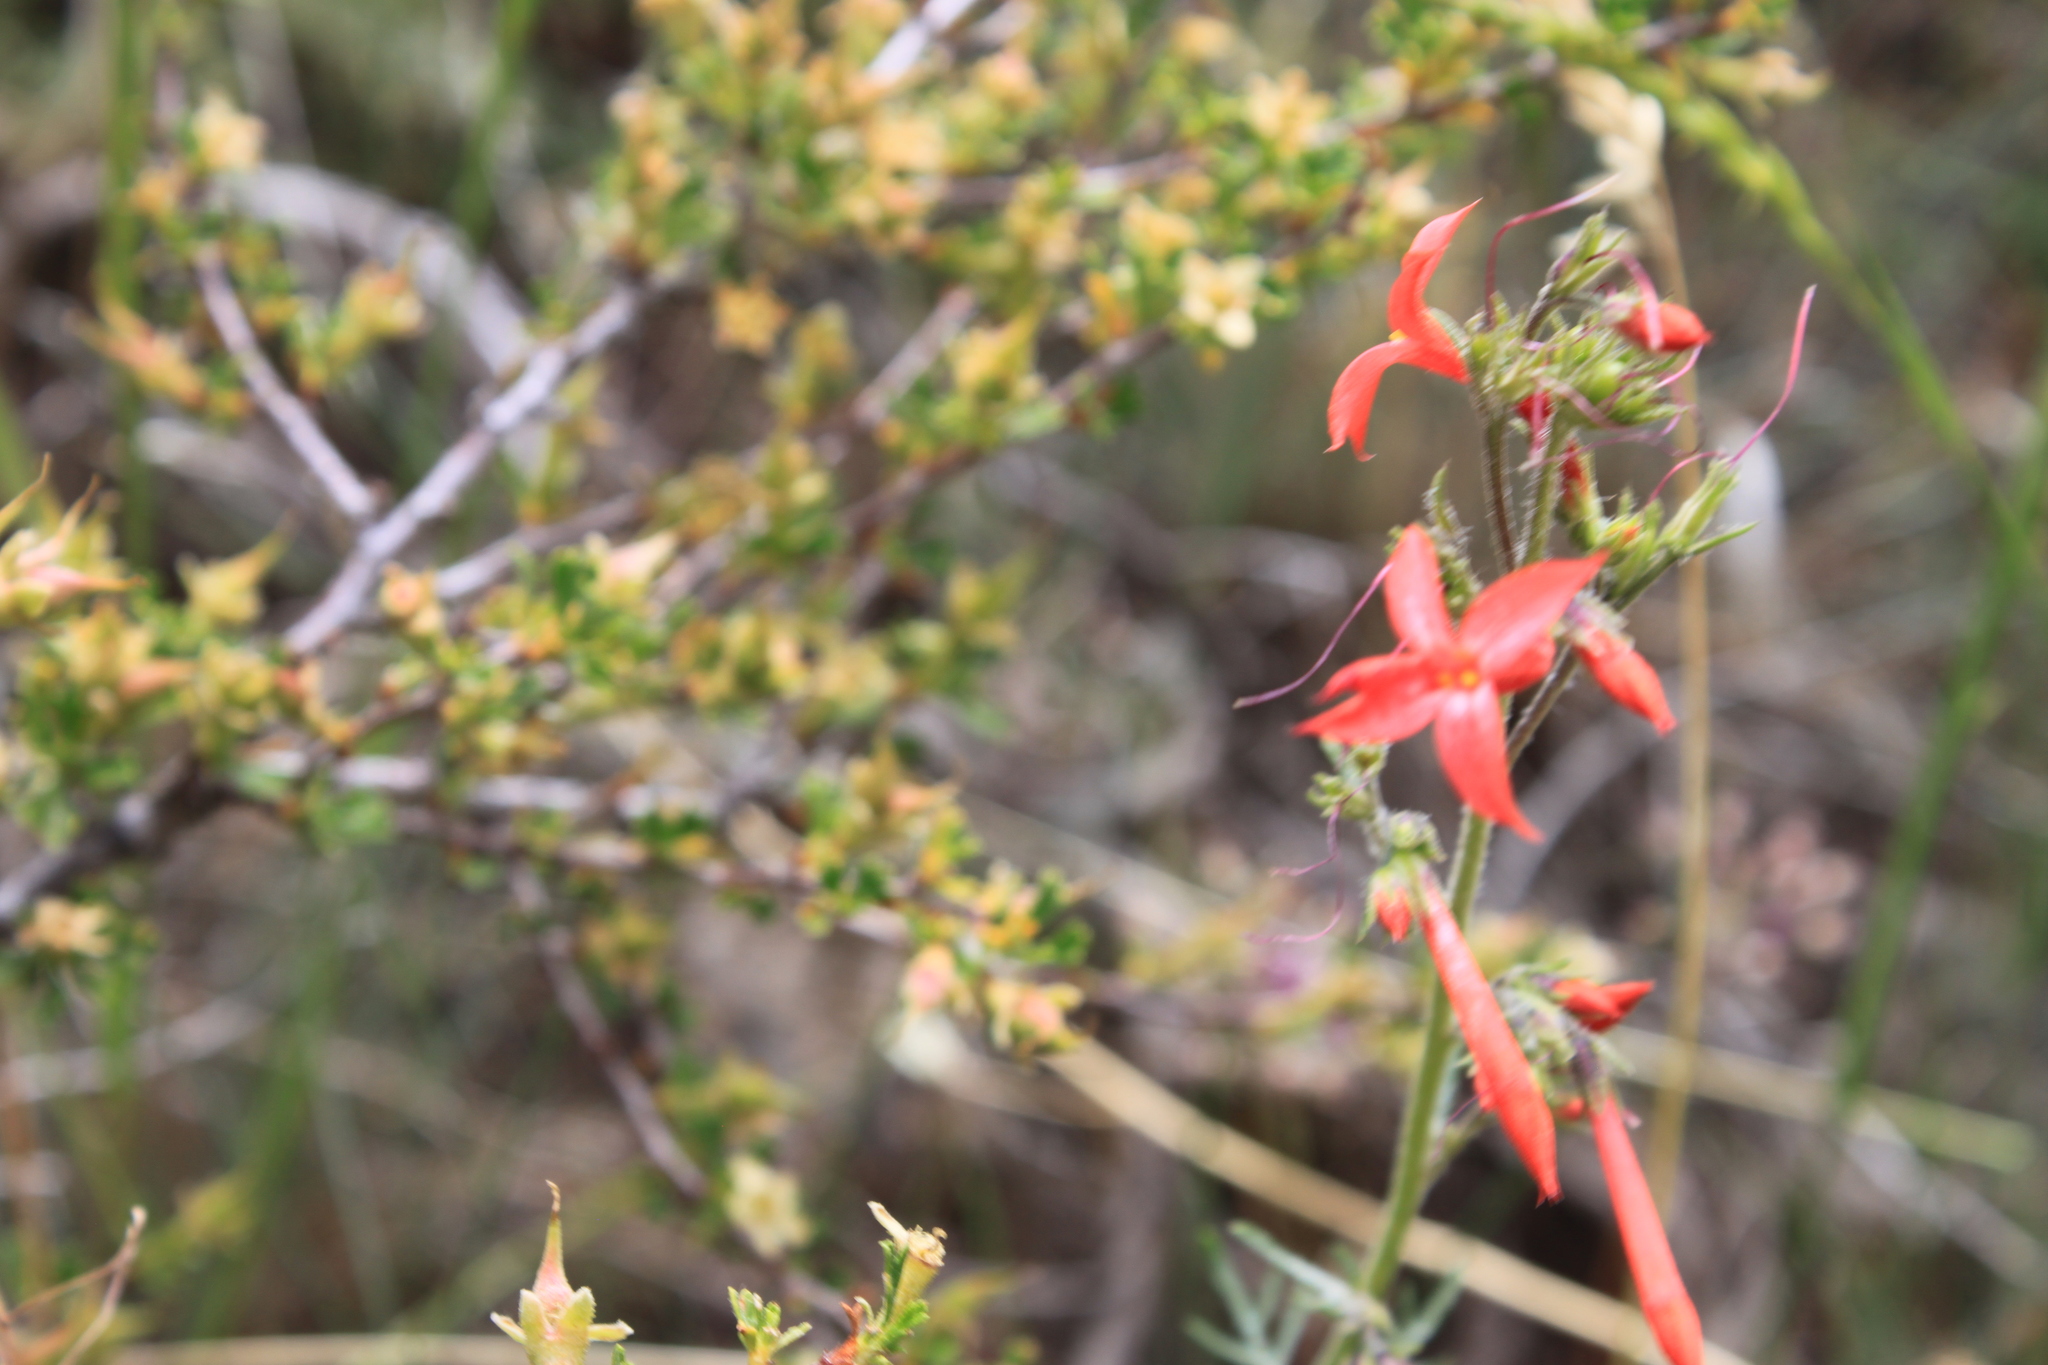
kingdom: Plantae
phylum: Tracheophyta
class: Magnoliopsida
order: Ericales
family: Polemoniaceae
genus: Ipomopsis
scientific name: Ipomopsis aggregata
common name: Scarlet gilia
